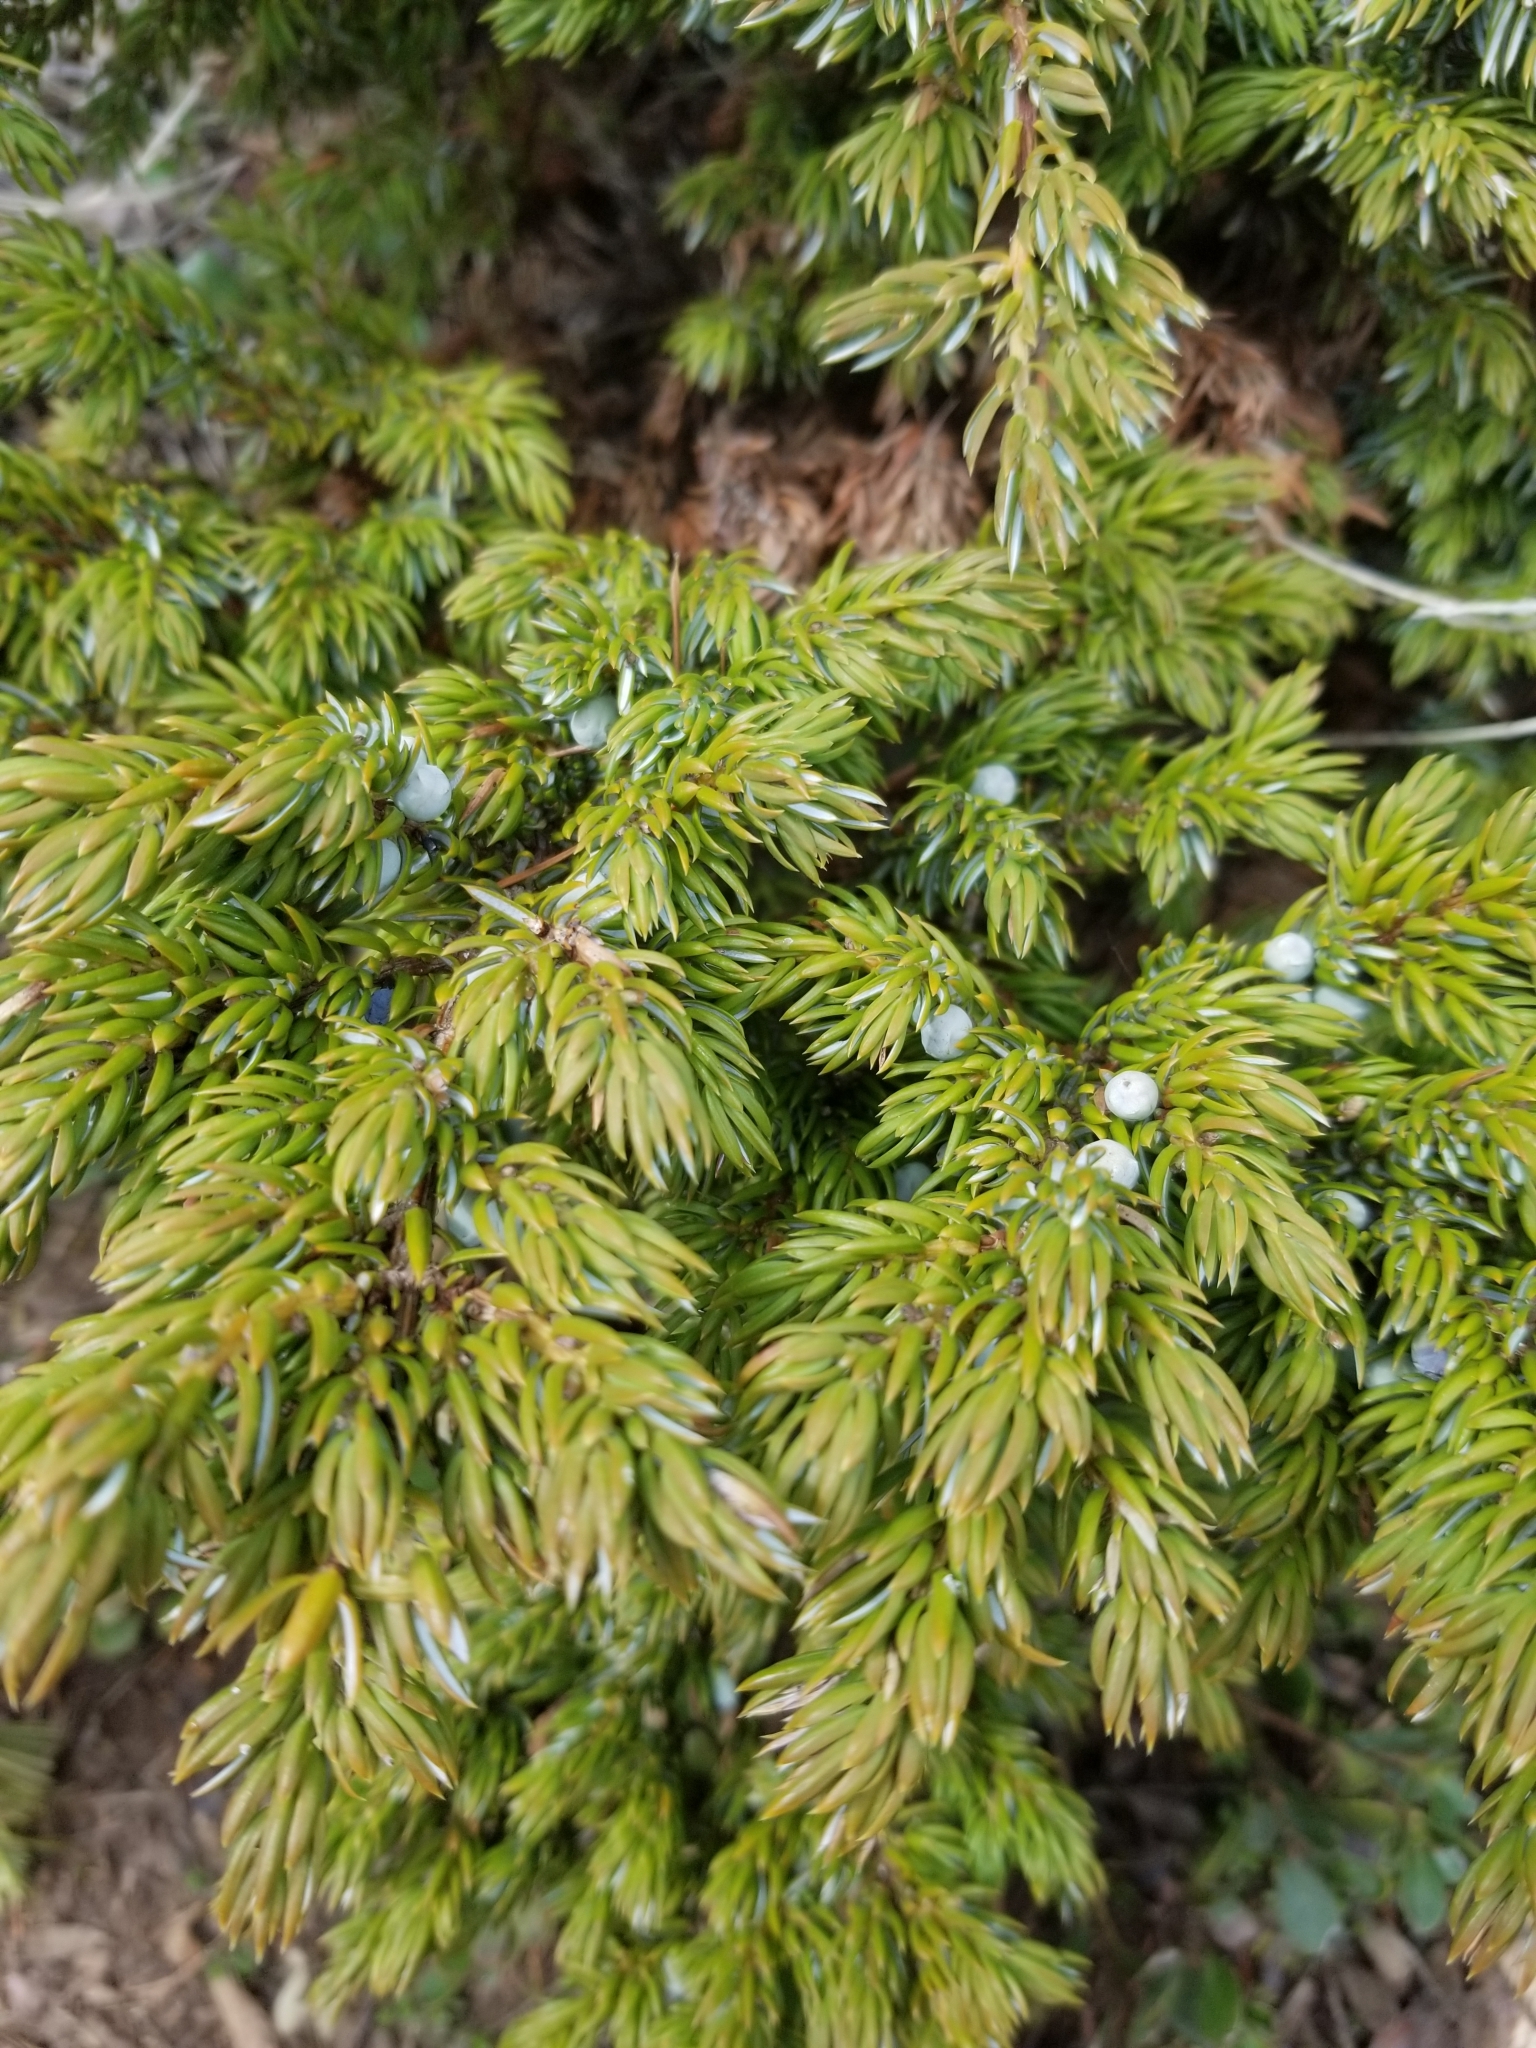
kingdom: Plantae
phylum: Tracheophyta
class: Pinopsida
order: Pinales
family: Cupressaceae
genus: Juniperus
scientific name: Juniperus communis
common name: Common juniper
